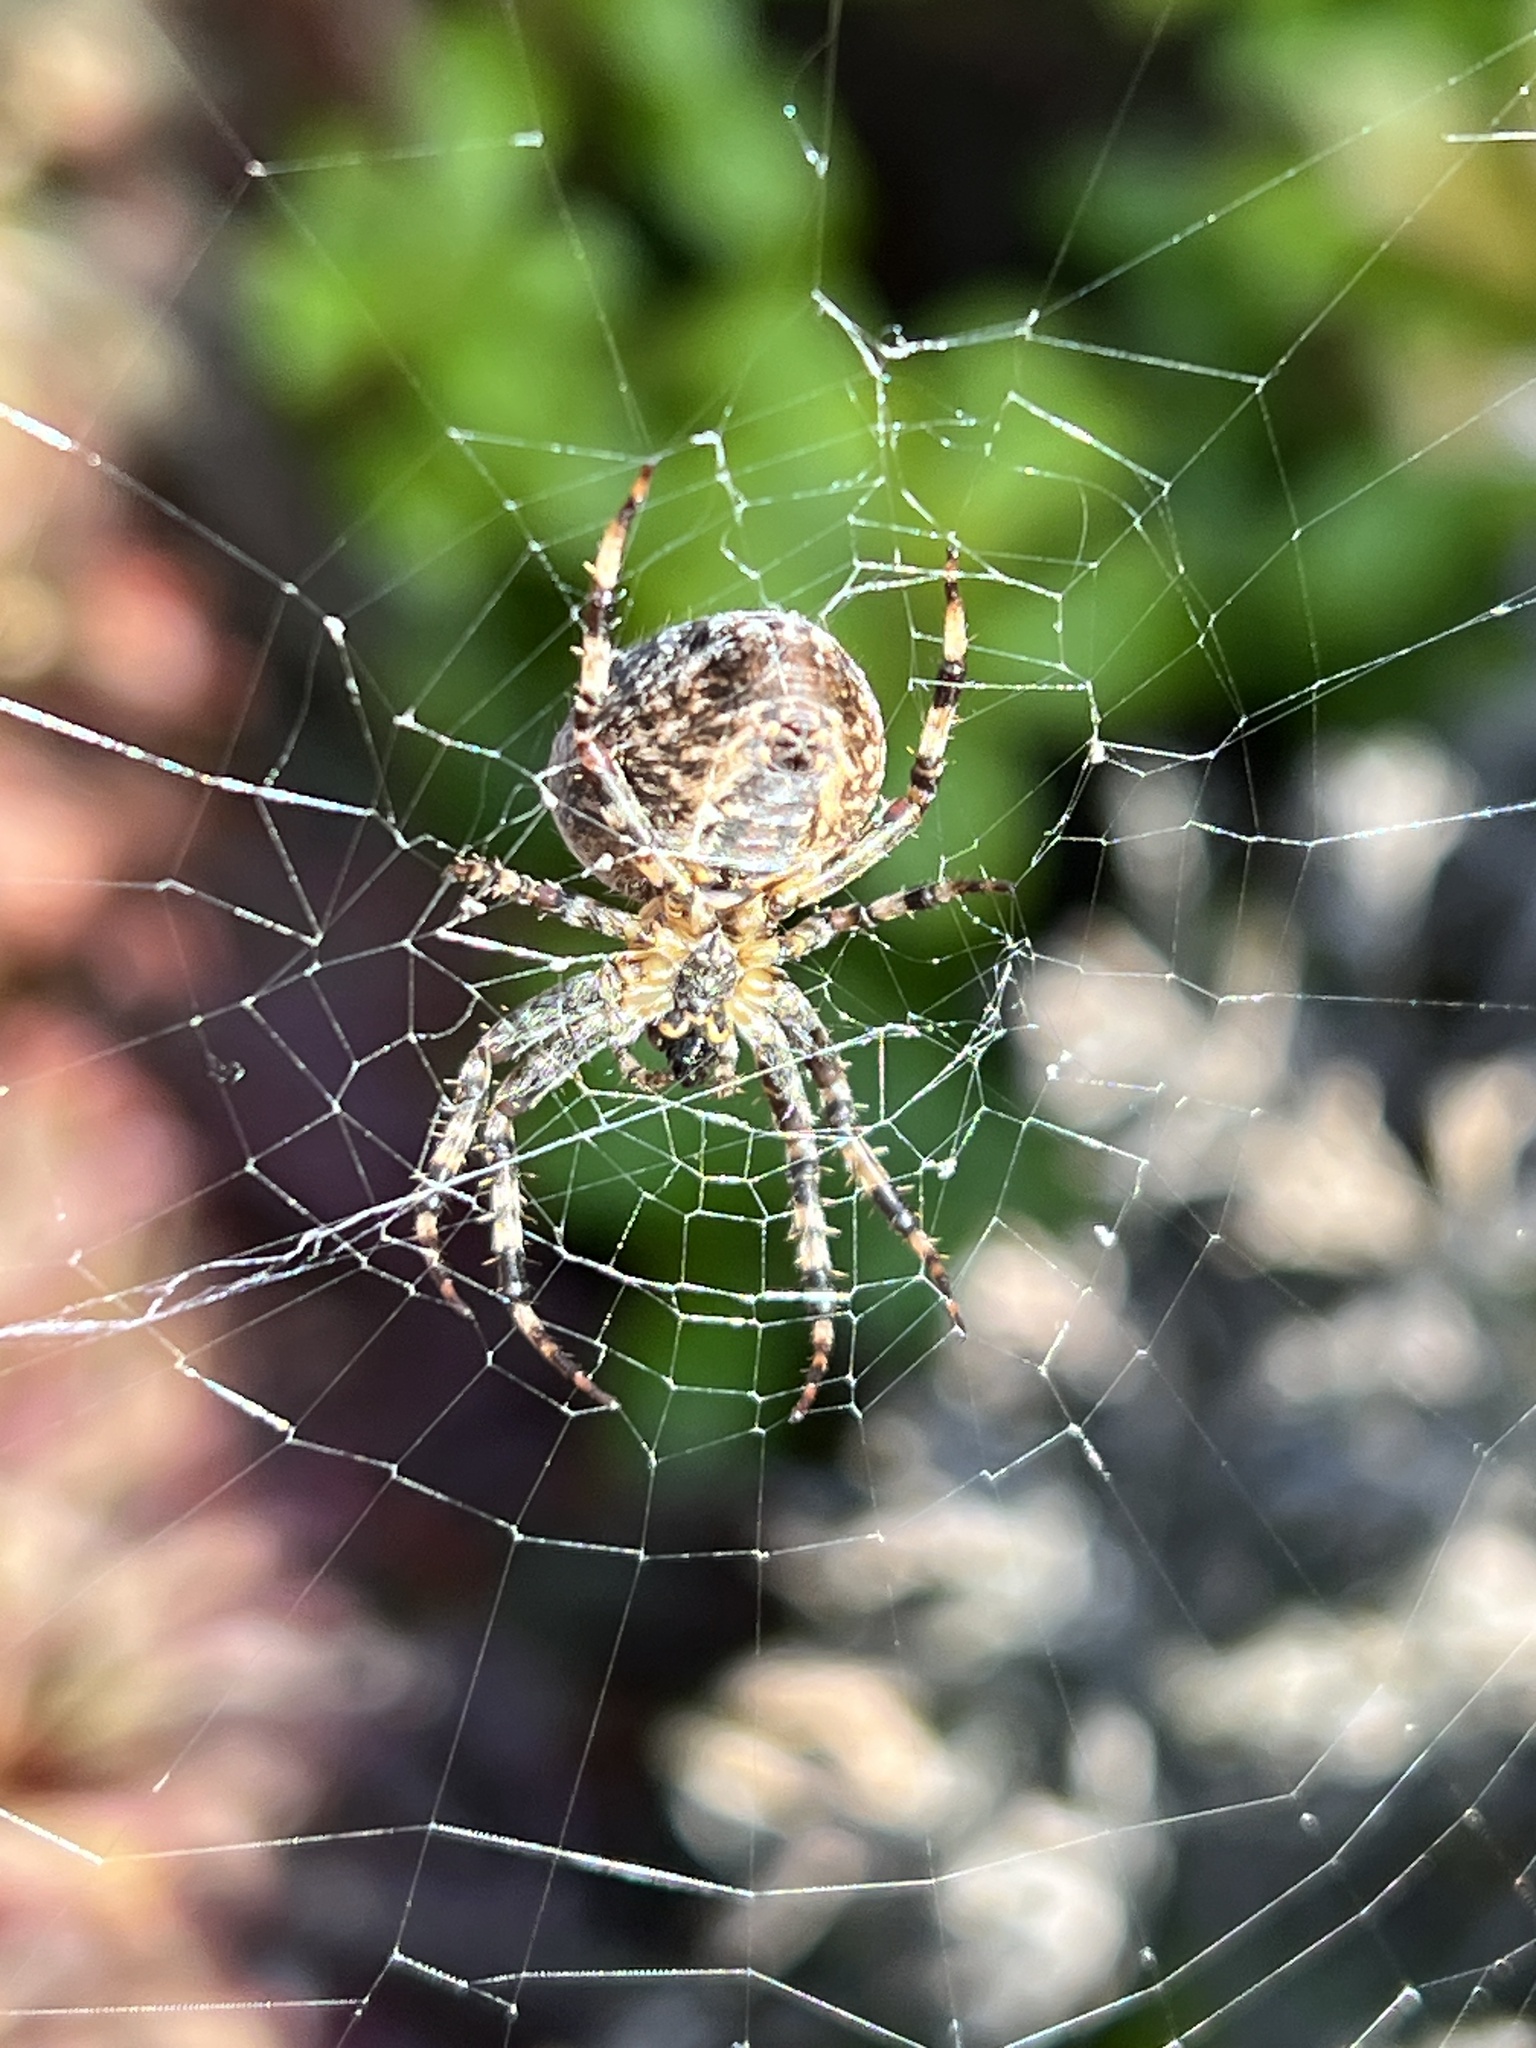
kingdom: Animalia
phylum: Arthropoda
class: Arachnida
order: Araneae
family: Araneidae
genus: Araneus
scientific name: Araneus diadematus
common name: Cross orbweaver
